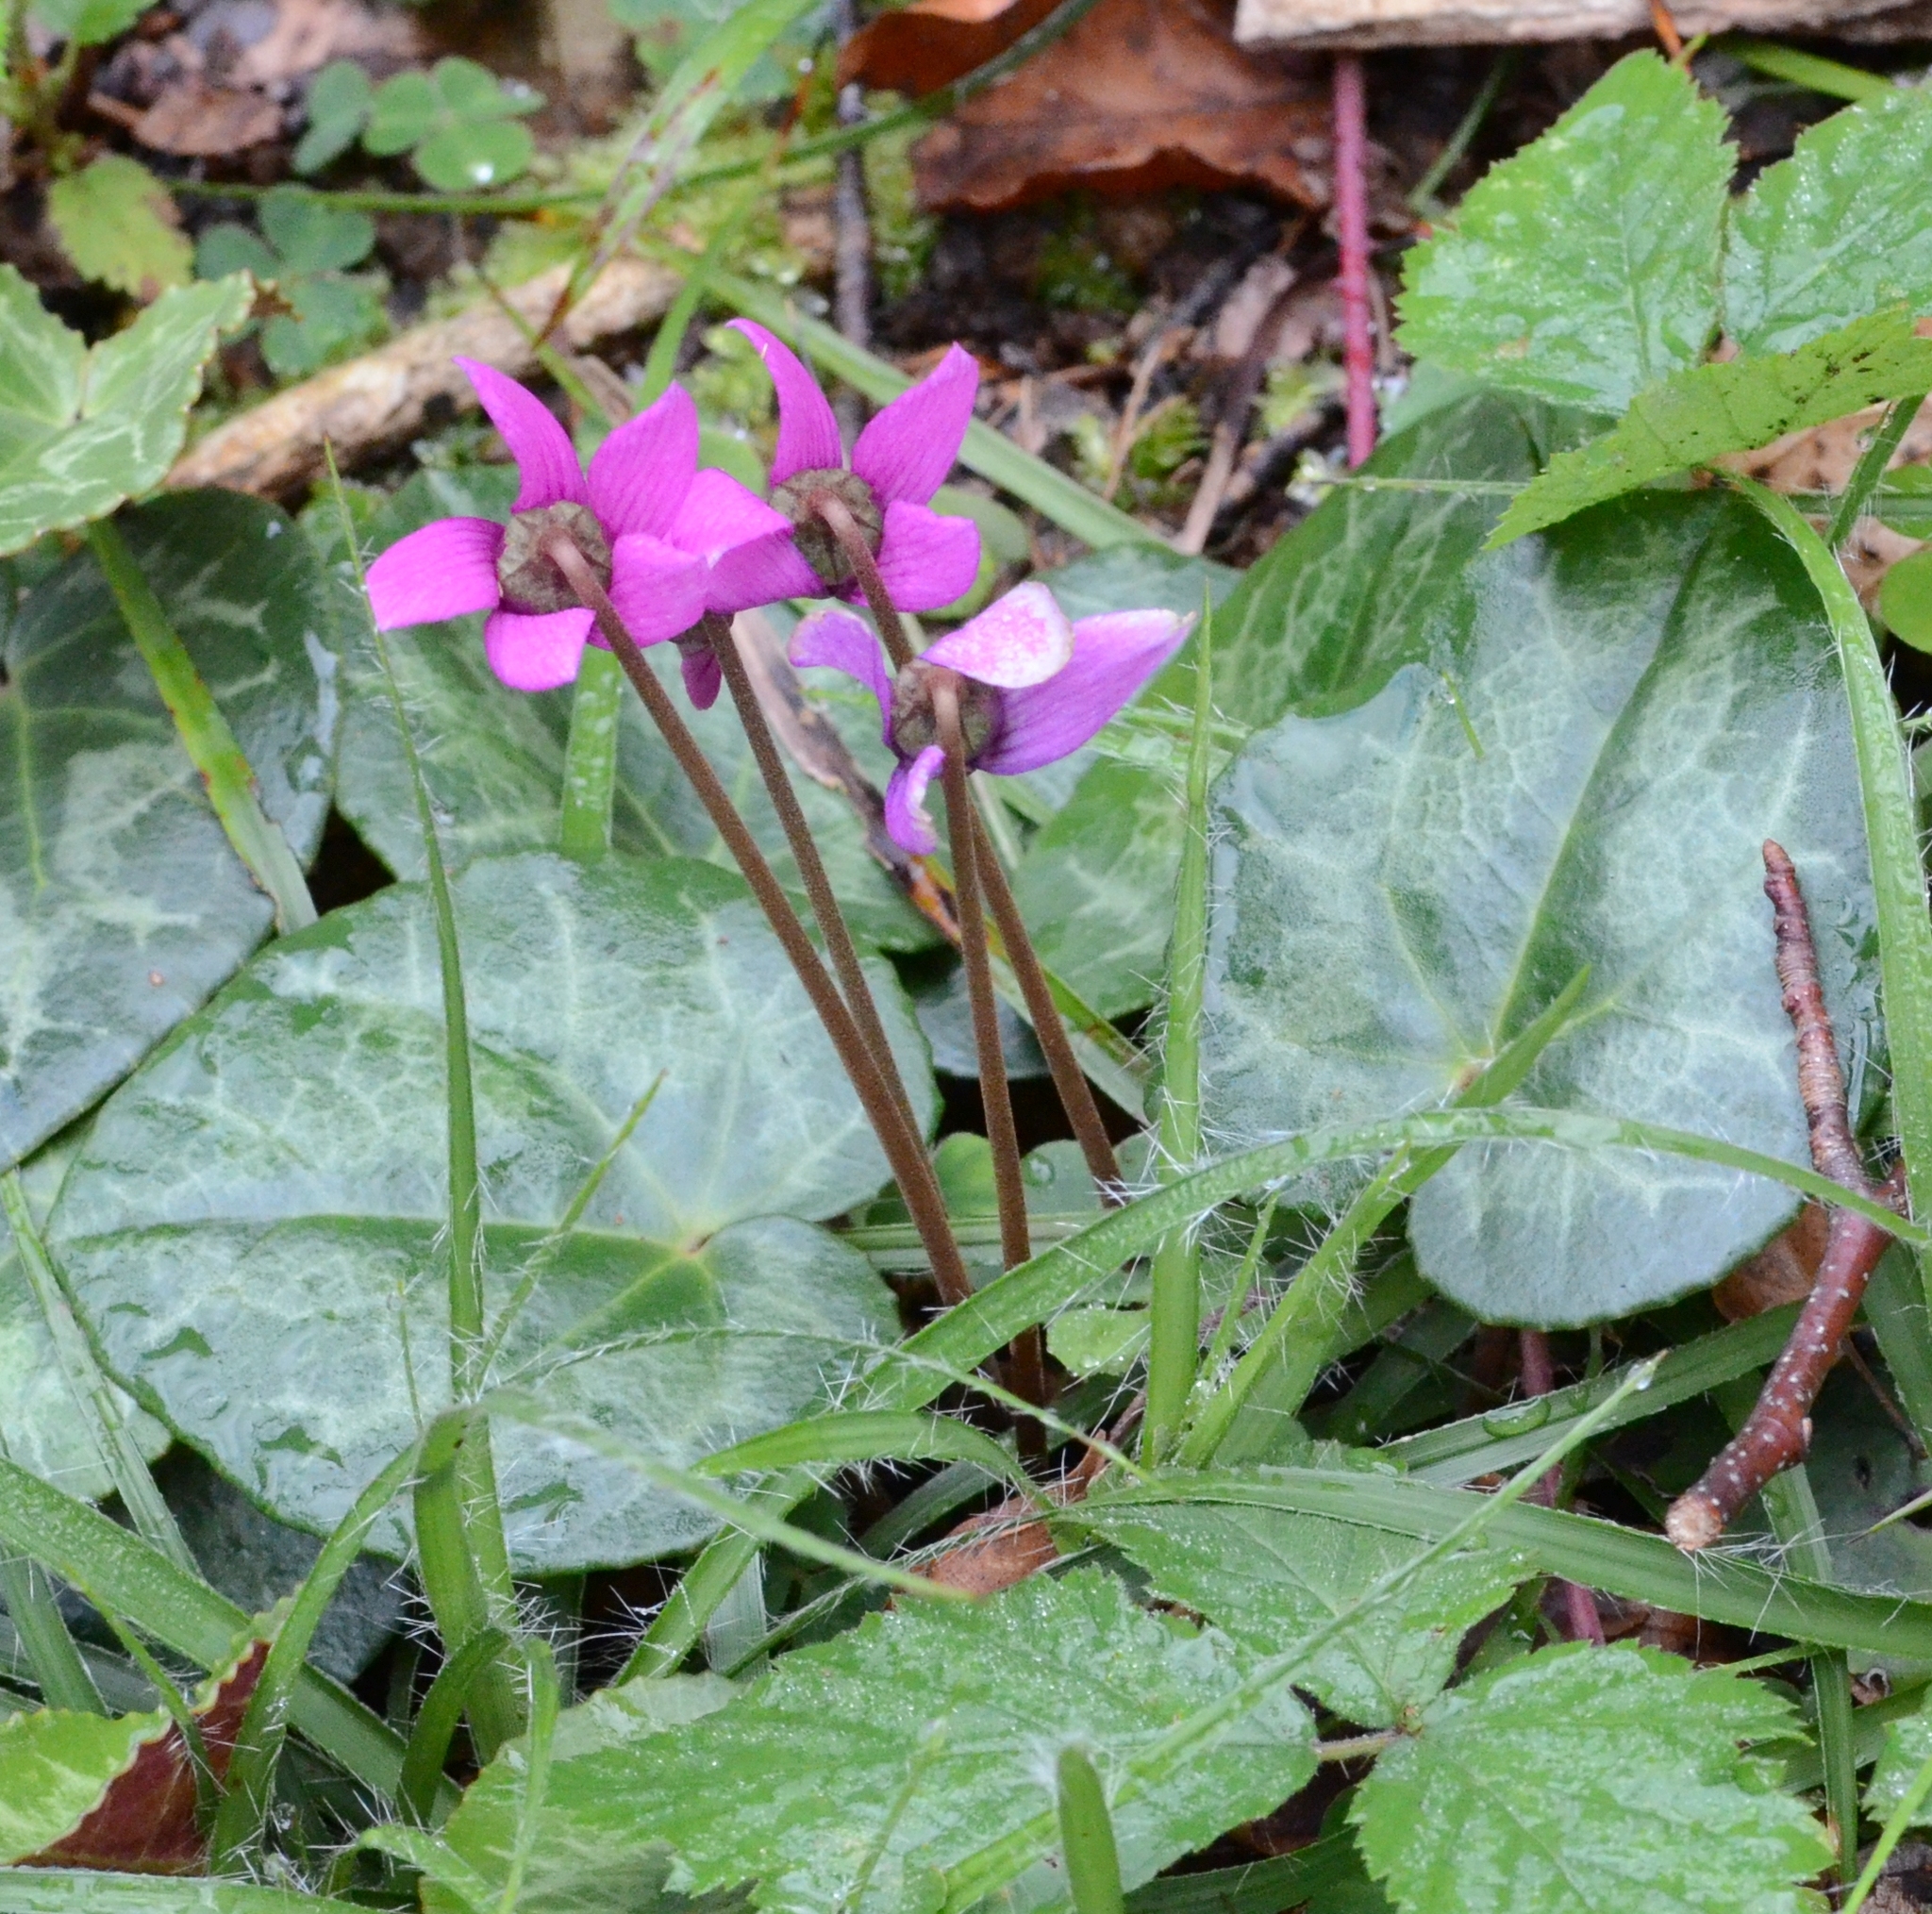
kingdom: Plantae
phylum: Tracheophyta
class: Magnoliopsida
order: Ericales
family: Primulaceae
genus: Cyclamen
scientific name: Cyclamen purpurascens
